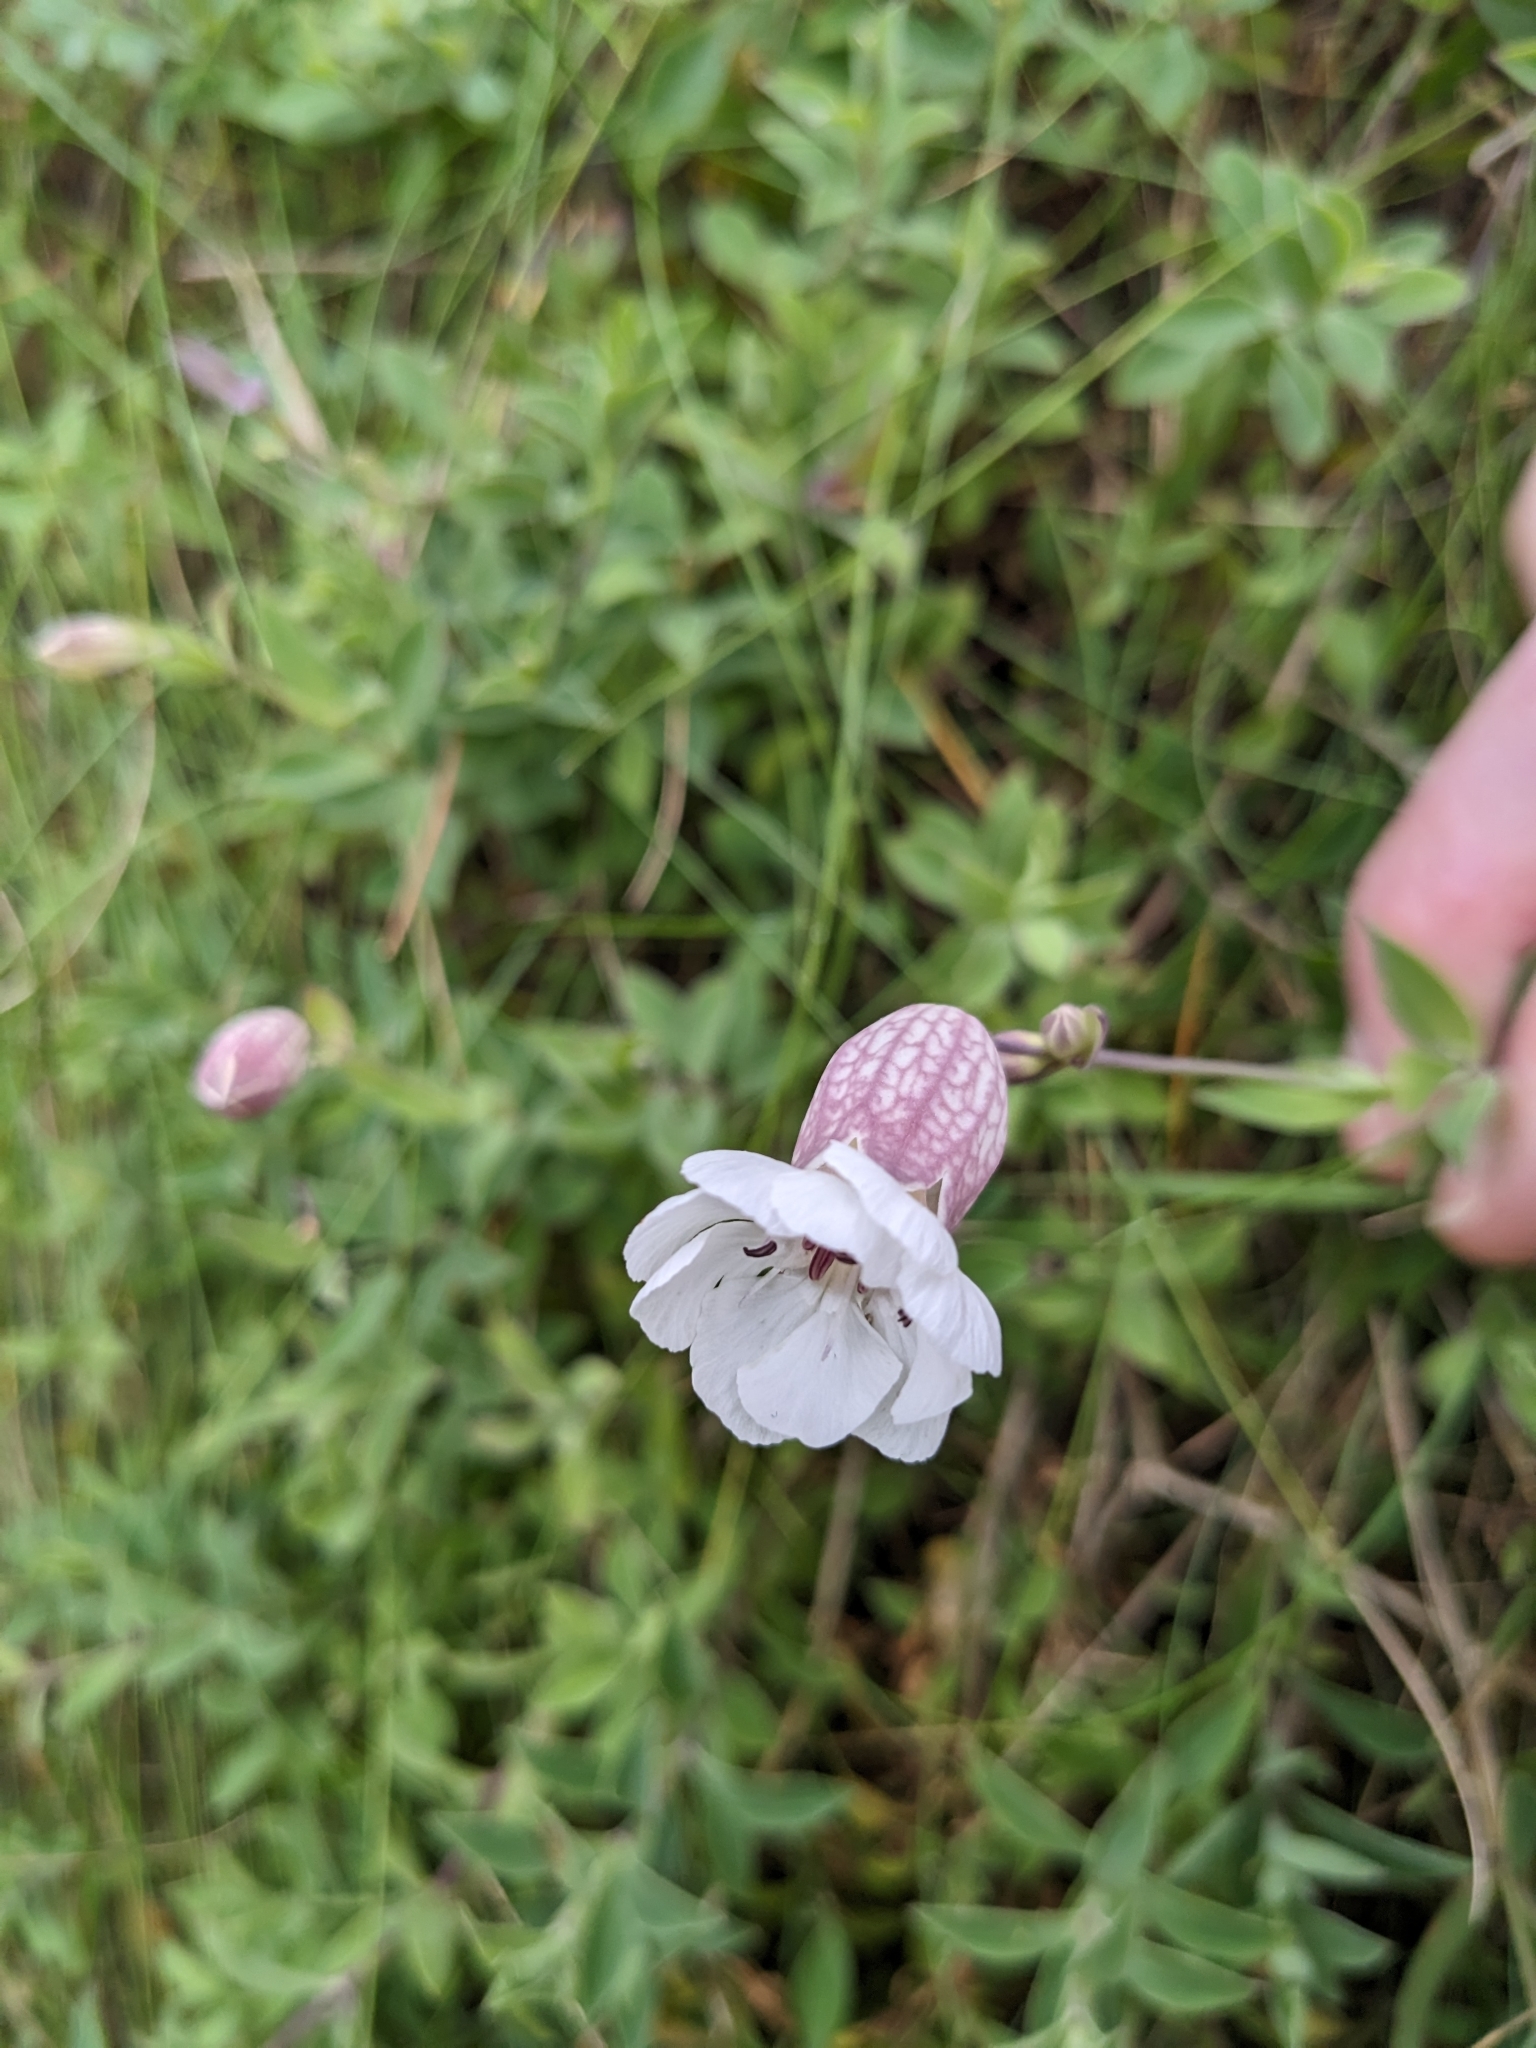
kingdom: Plantae
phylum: Tracheophyta
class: Magnoliopsida
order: Caryophyllales
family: Caryophyllaceae
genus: Silene
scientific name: Silene uniflora
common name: Sea campion
